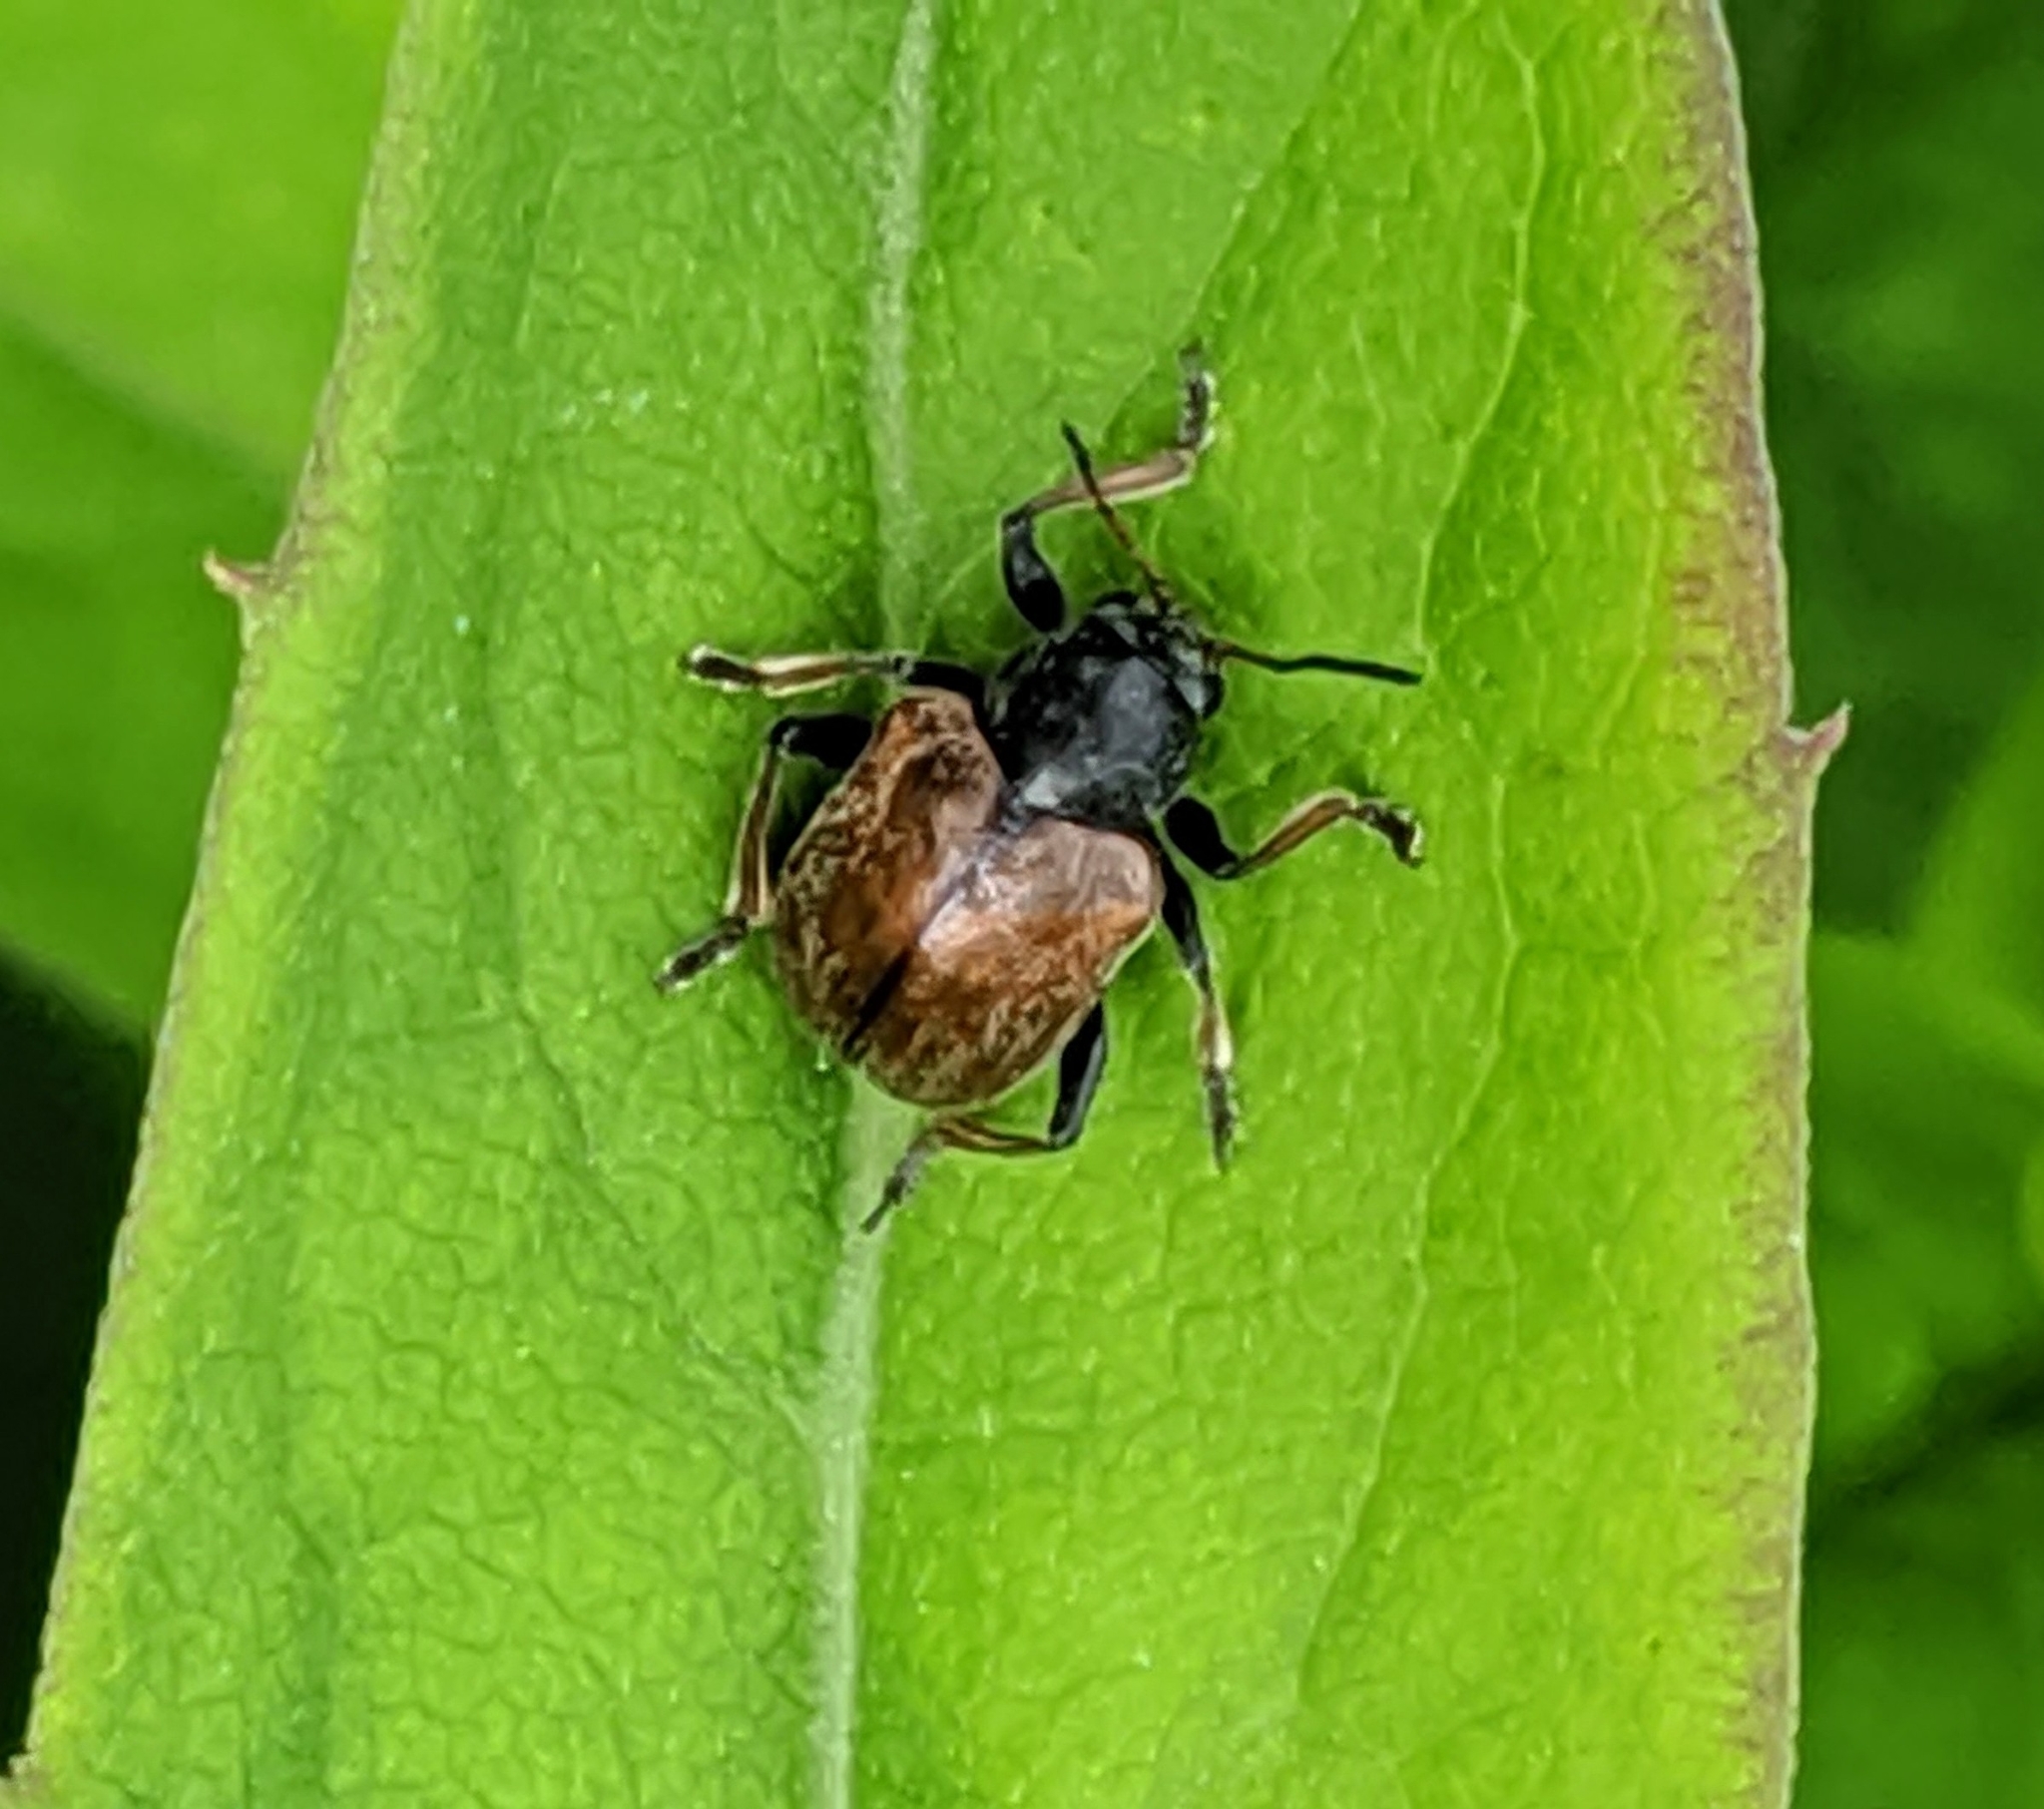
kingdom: Animalia
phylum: Arthropoda
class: Insecta
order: Coleoptera
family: Chrysomelidae
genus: Bromius
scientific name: Bromius obscurus
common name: Western grape rootworm
